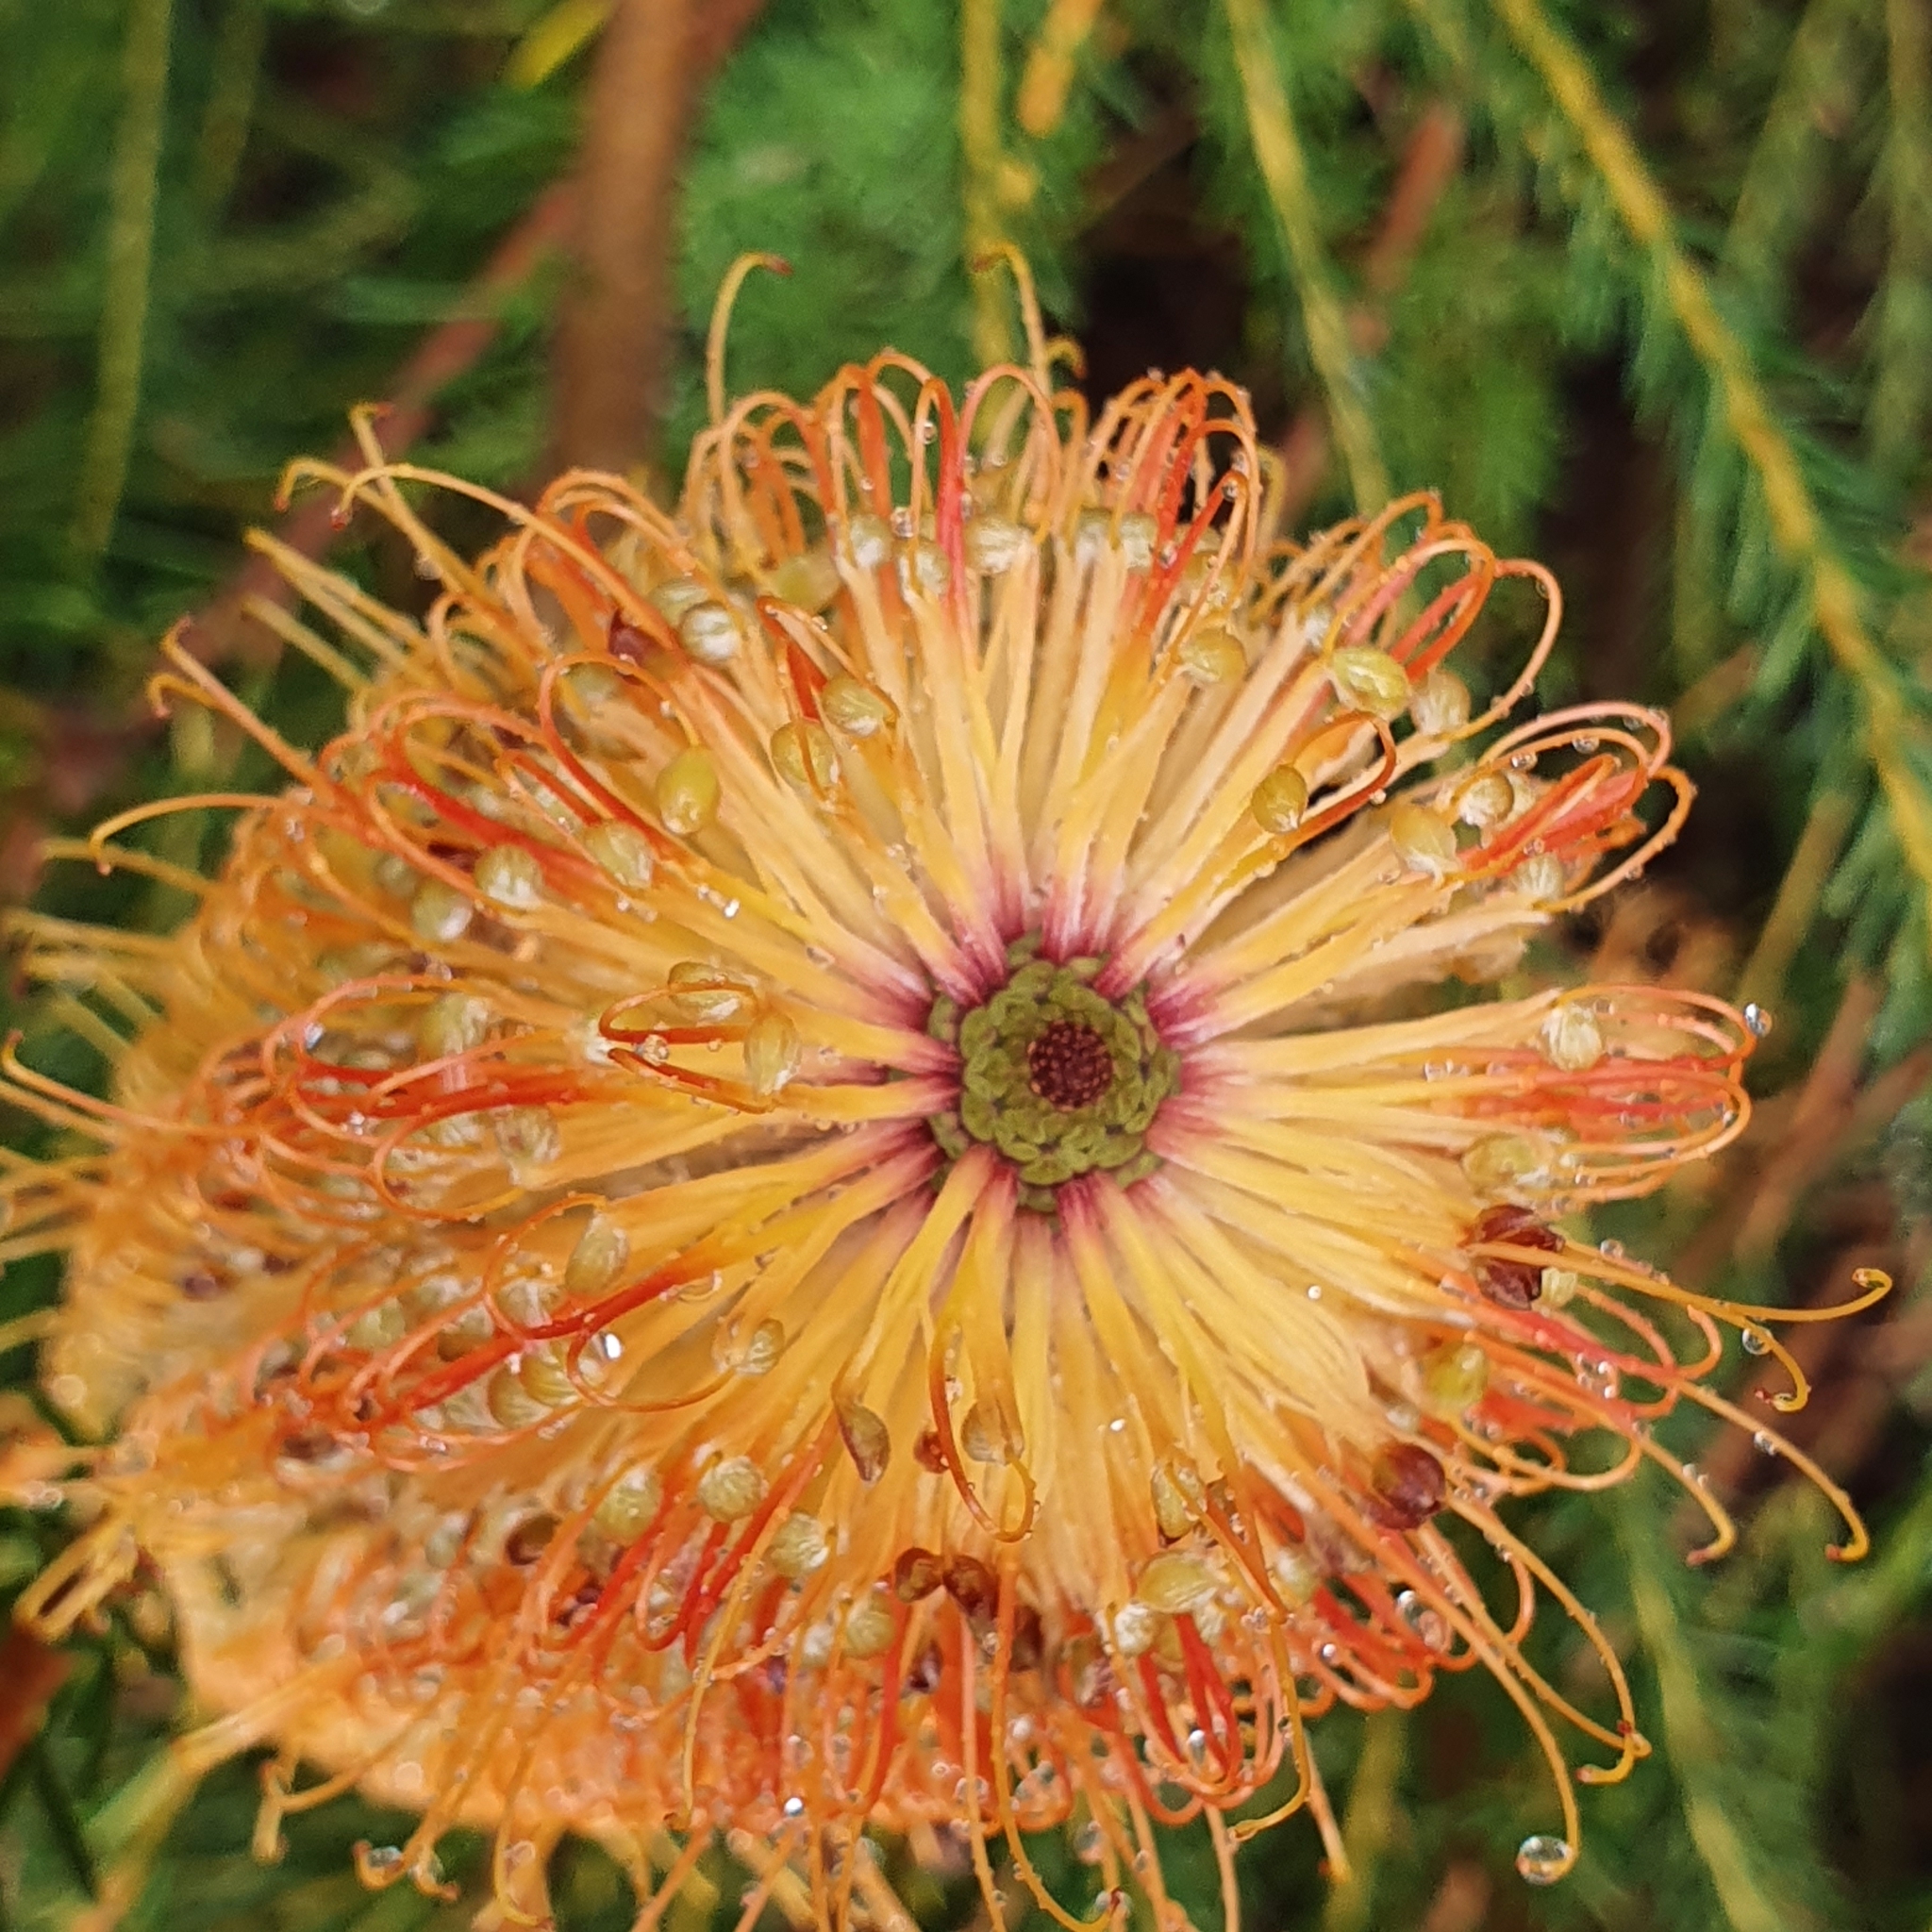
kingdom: Plantae
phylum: Tracheophyta
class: Magnoliopsida
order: Proteales
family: Proteaceae
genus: Banksia
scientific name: Banksia ericifolia
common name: Heath-leaf banksia
